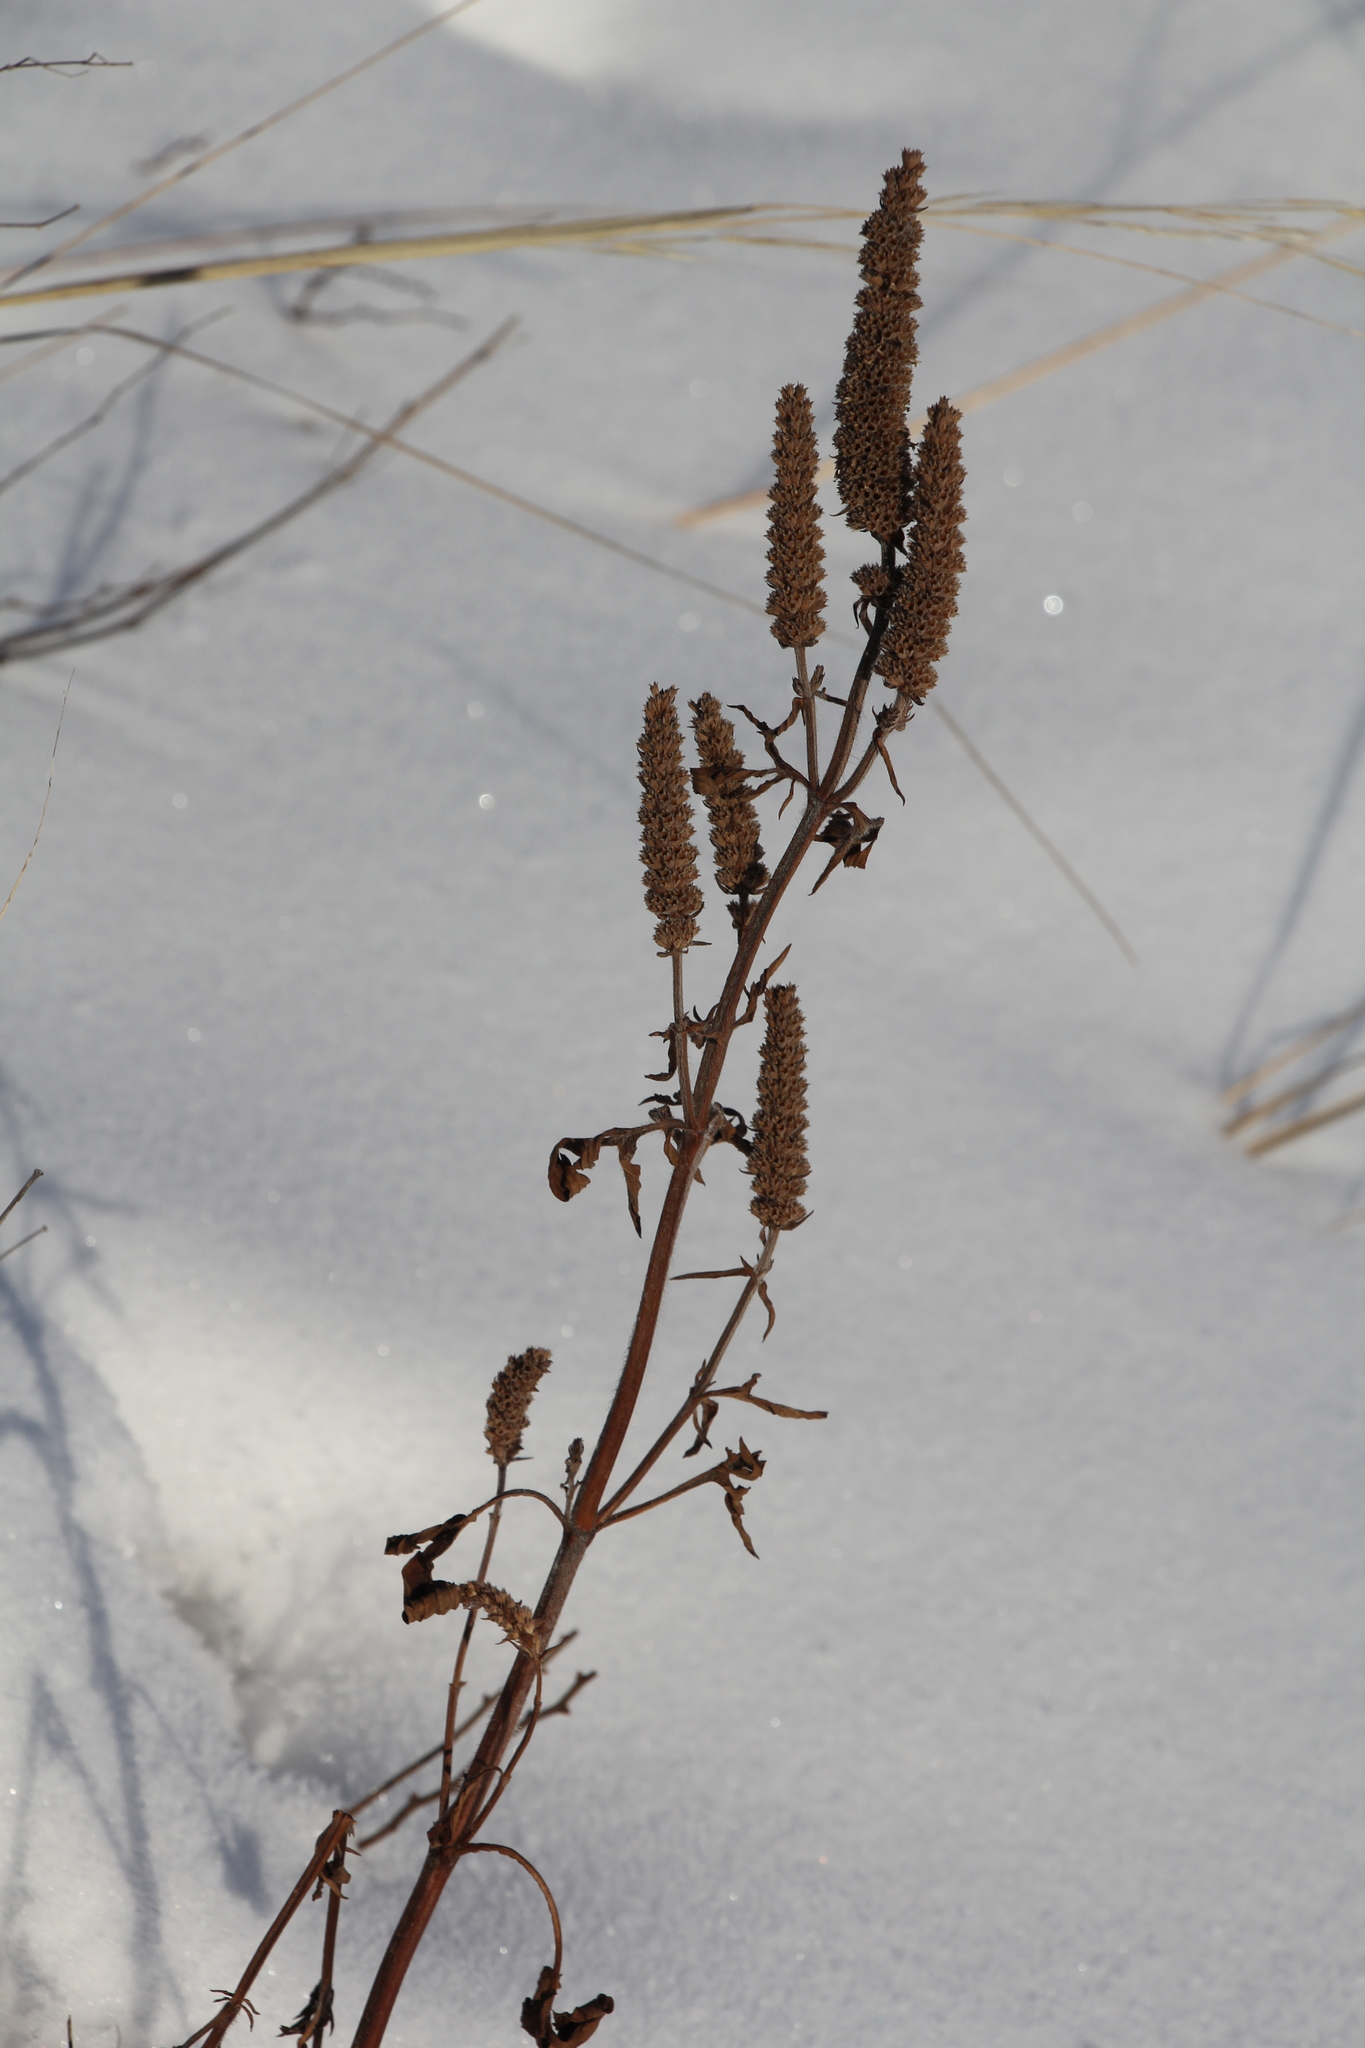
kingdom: Plantae
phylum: Tracheophyta
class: Magnoliopsida
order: Lamiales
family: Lamiaceae
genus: Nepeta
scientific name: Nepeta multifida
